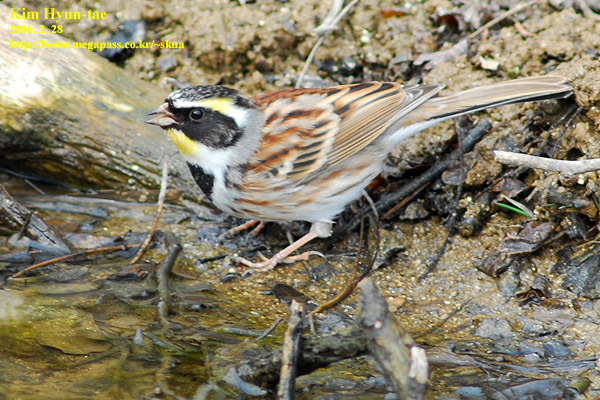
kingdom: Animalia
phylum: Chordata
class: Aves
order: Passeriformes
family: Emberizidae
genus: Emberiza
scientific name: Emberiza elegans
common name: Yellow-throated bunting
